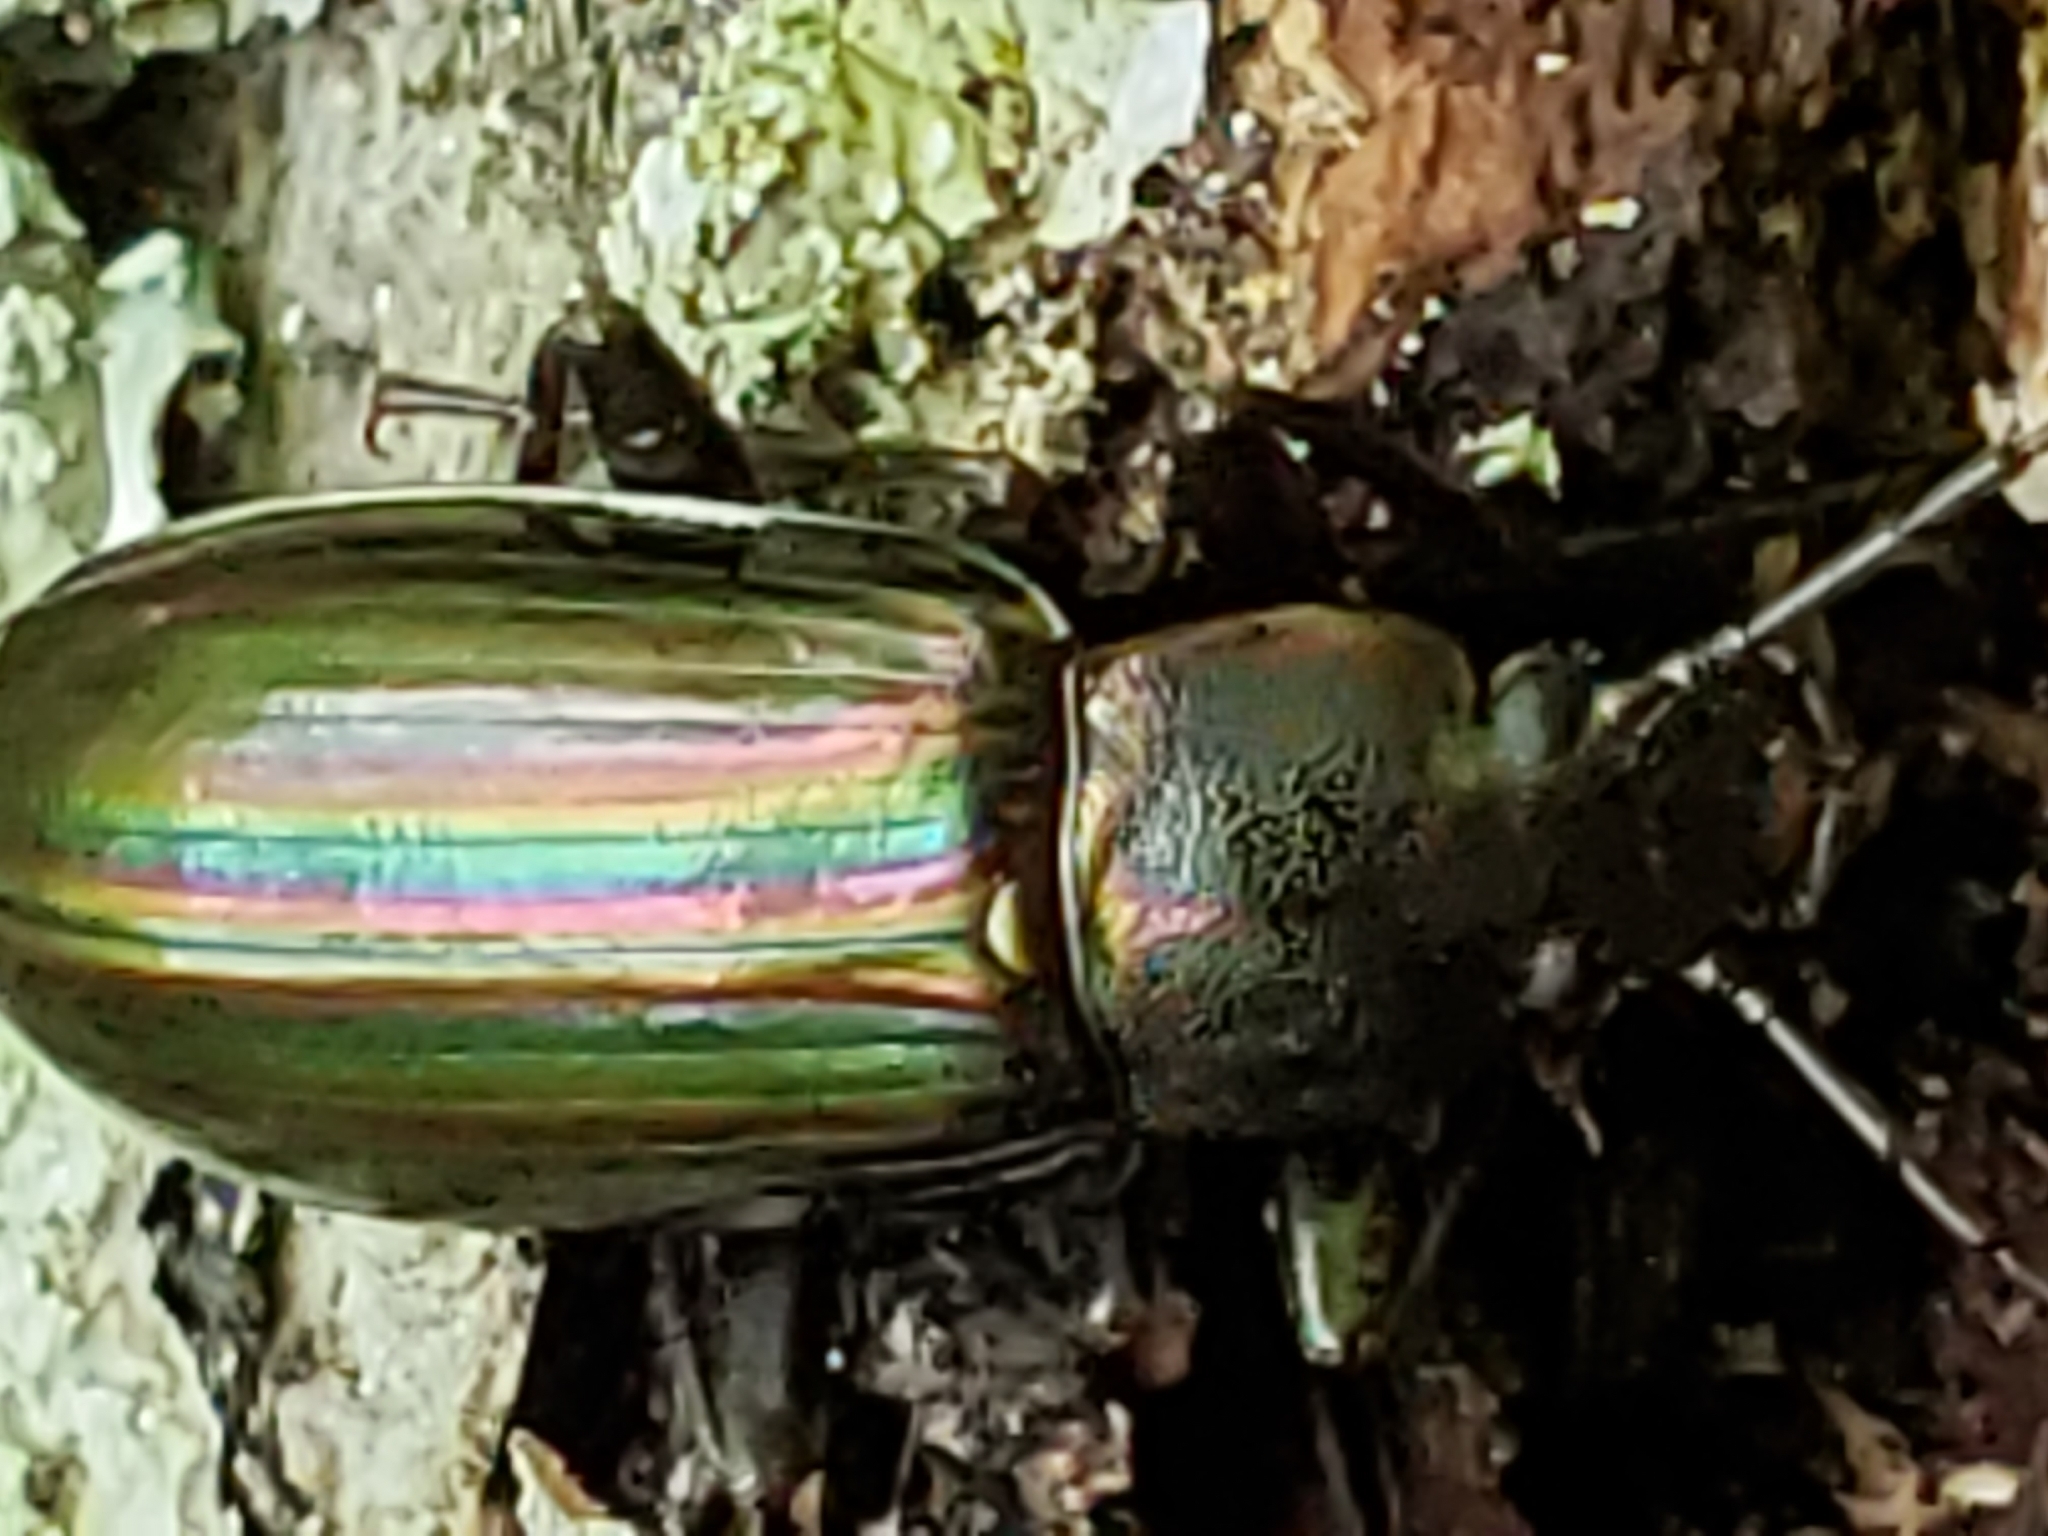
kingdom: Animalia
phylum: Arthropoda
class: Insecta
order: Coleoptera
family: Tenebrionidae
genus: Tarpela
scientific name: Tarpela micans
